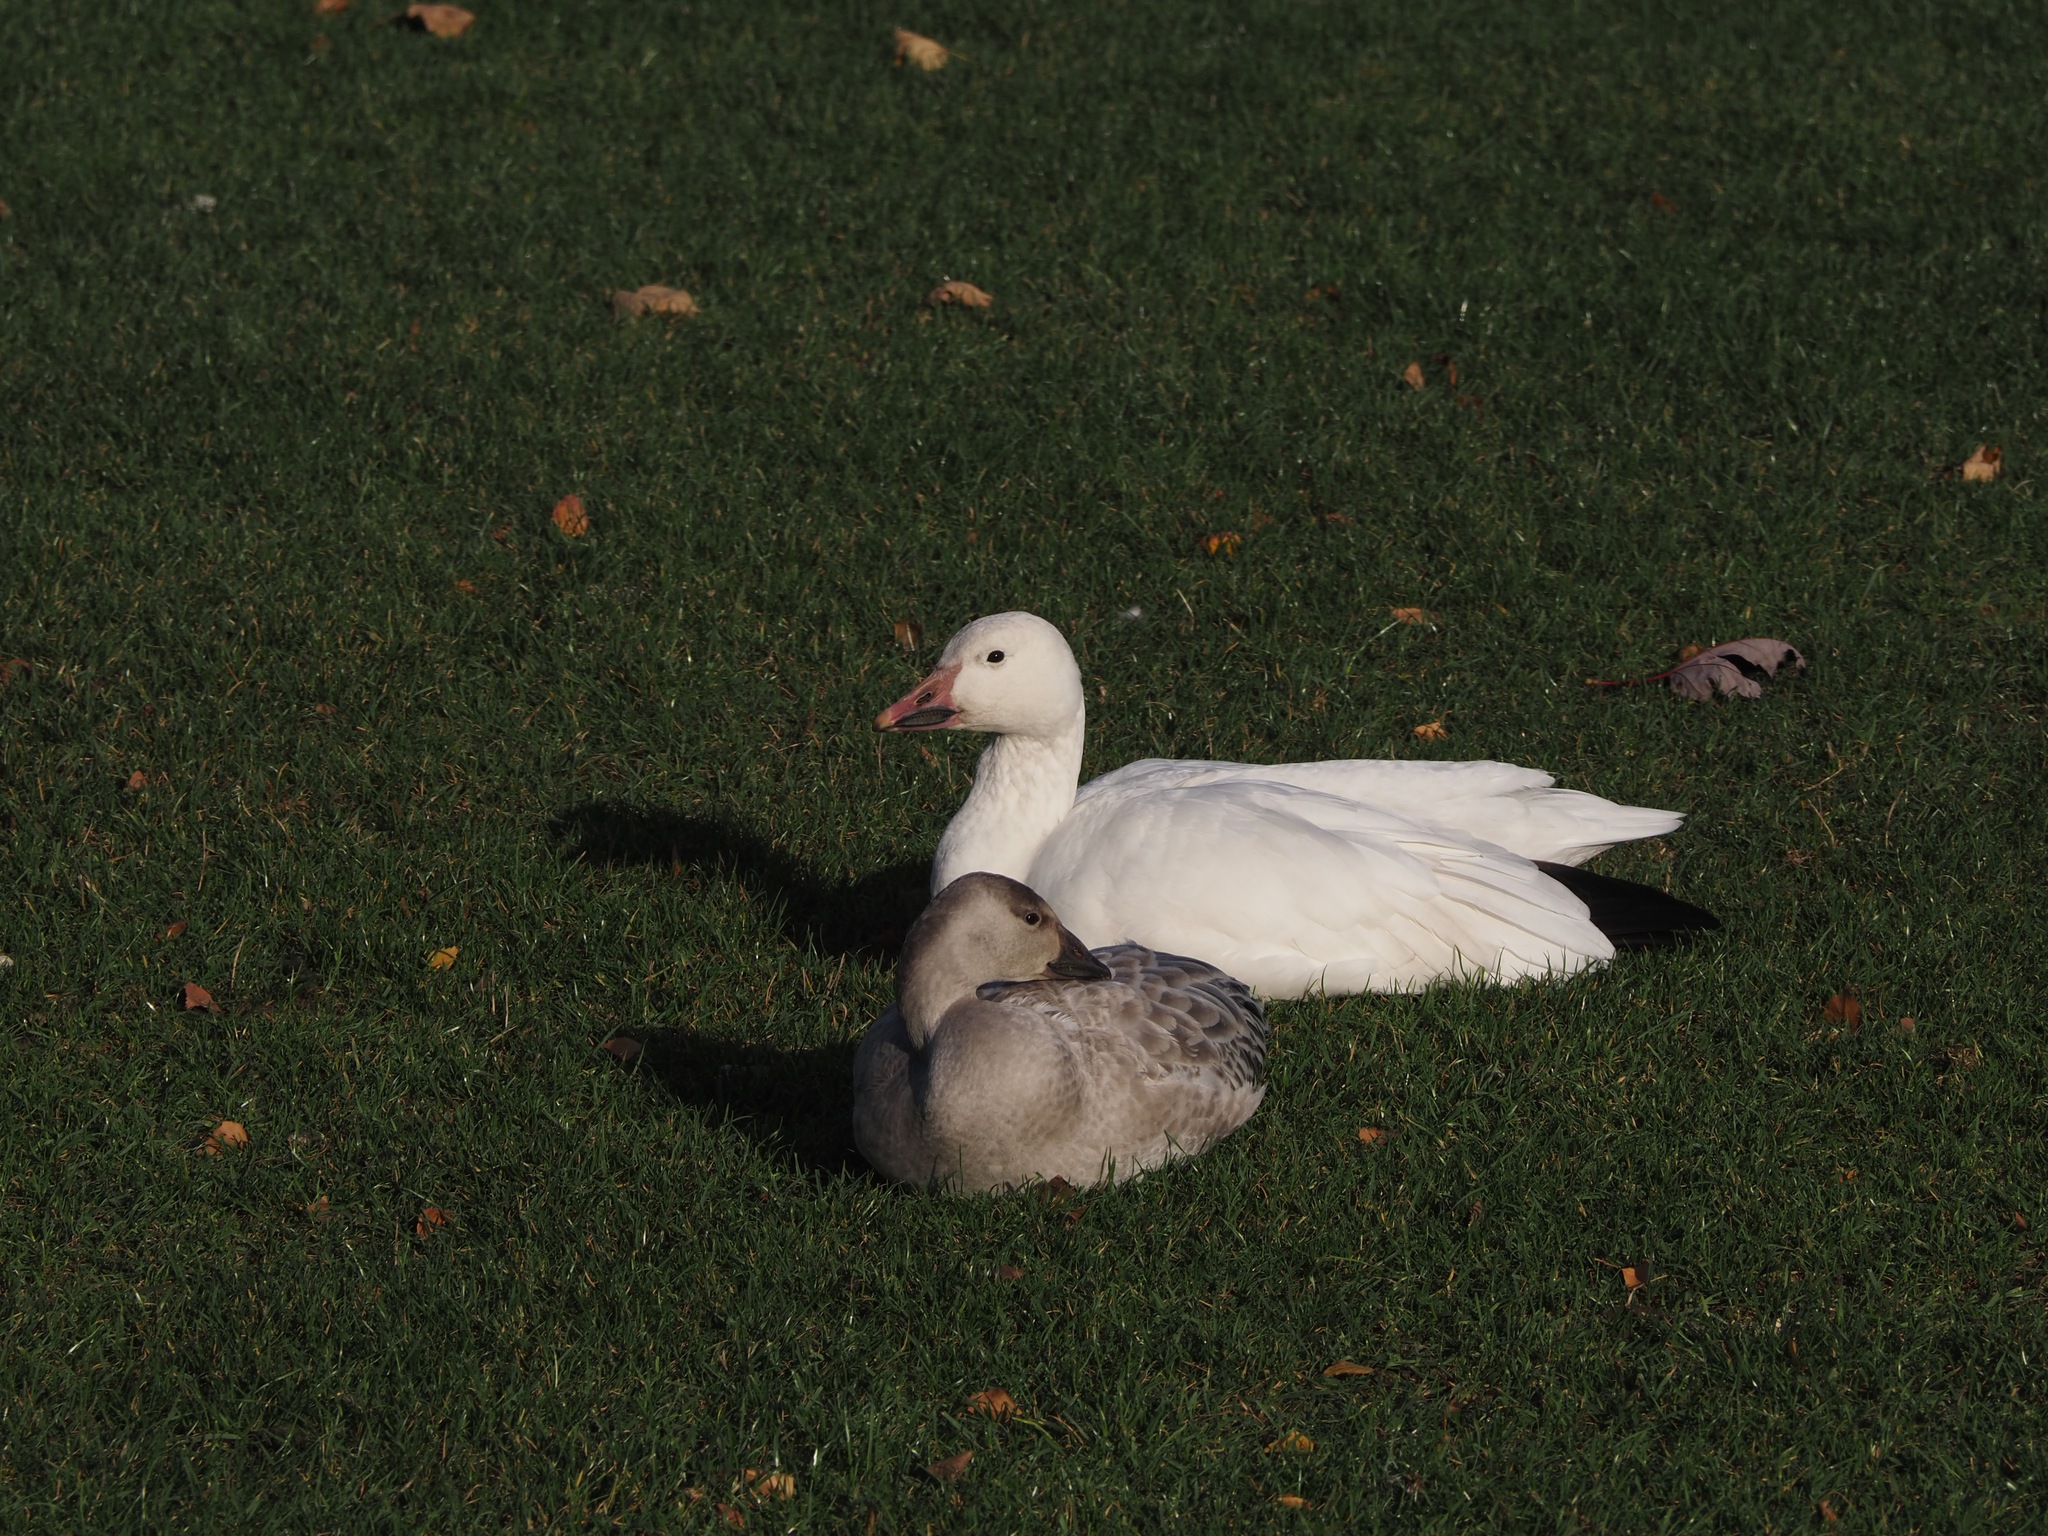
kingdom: Animalia
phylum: Chordata
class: Aves
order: Anseriformes
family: Anatidae
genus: Anser
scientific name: Anser caerulescens
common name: Snow goose
